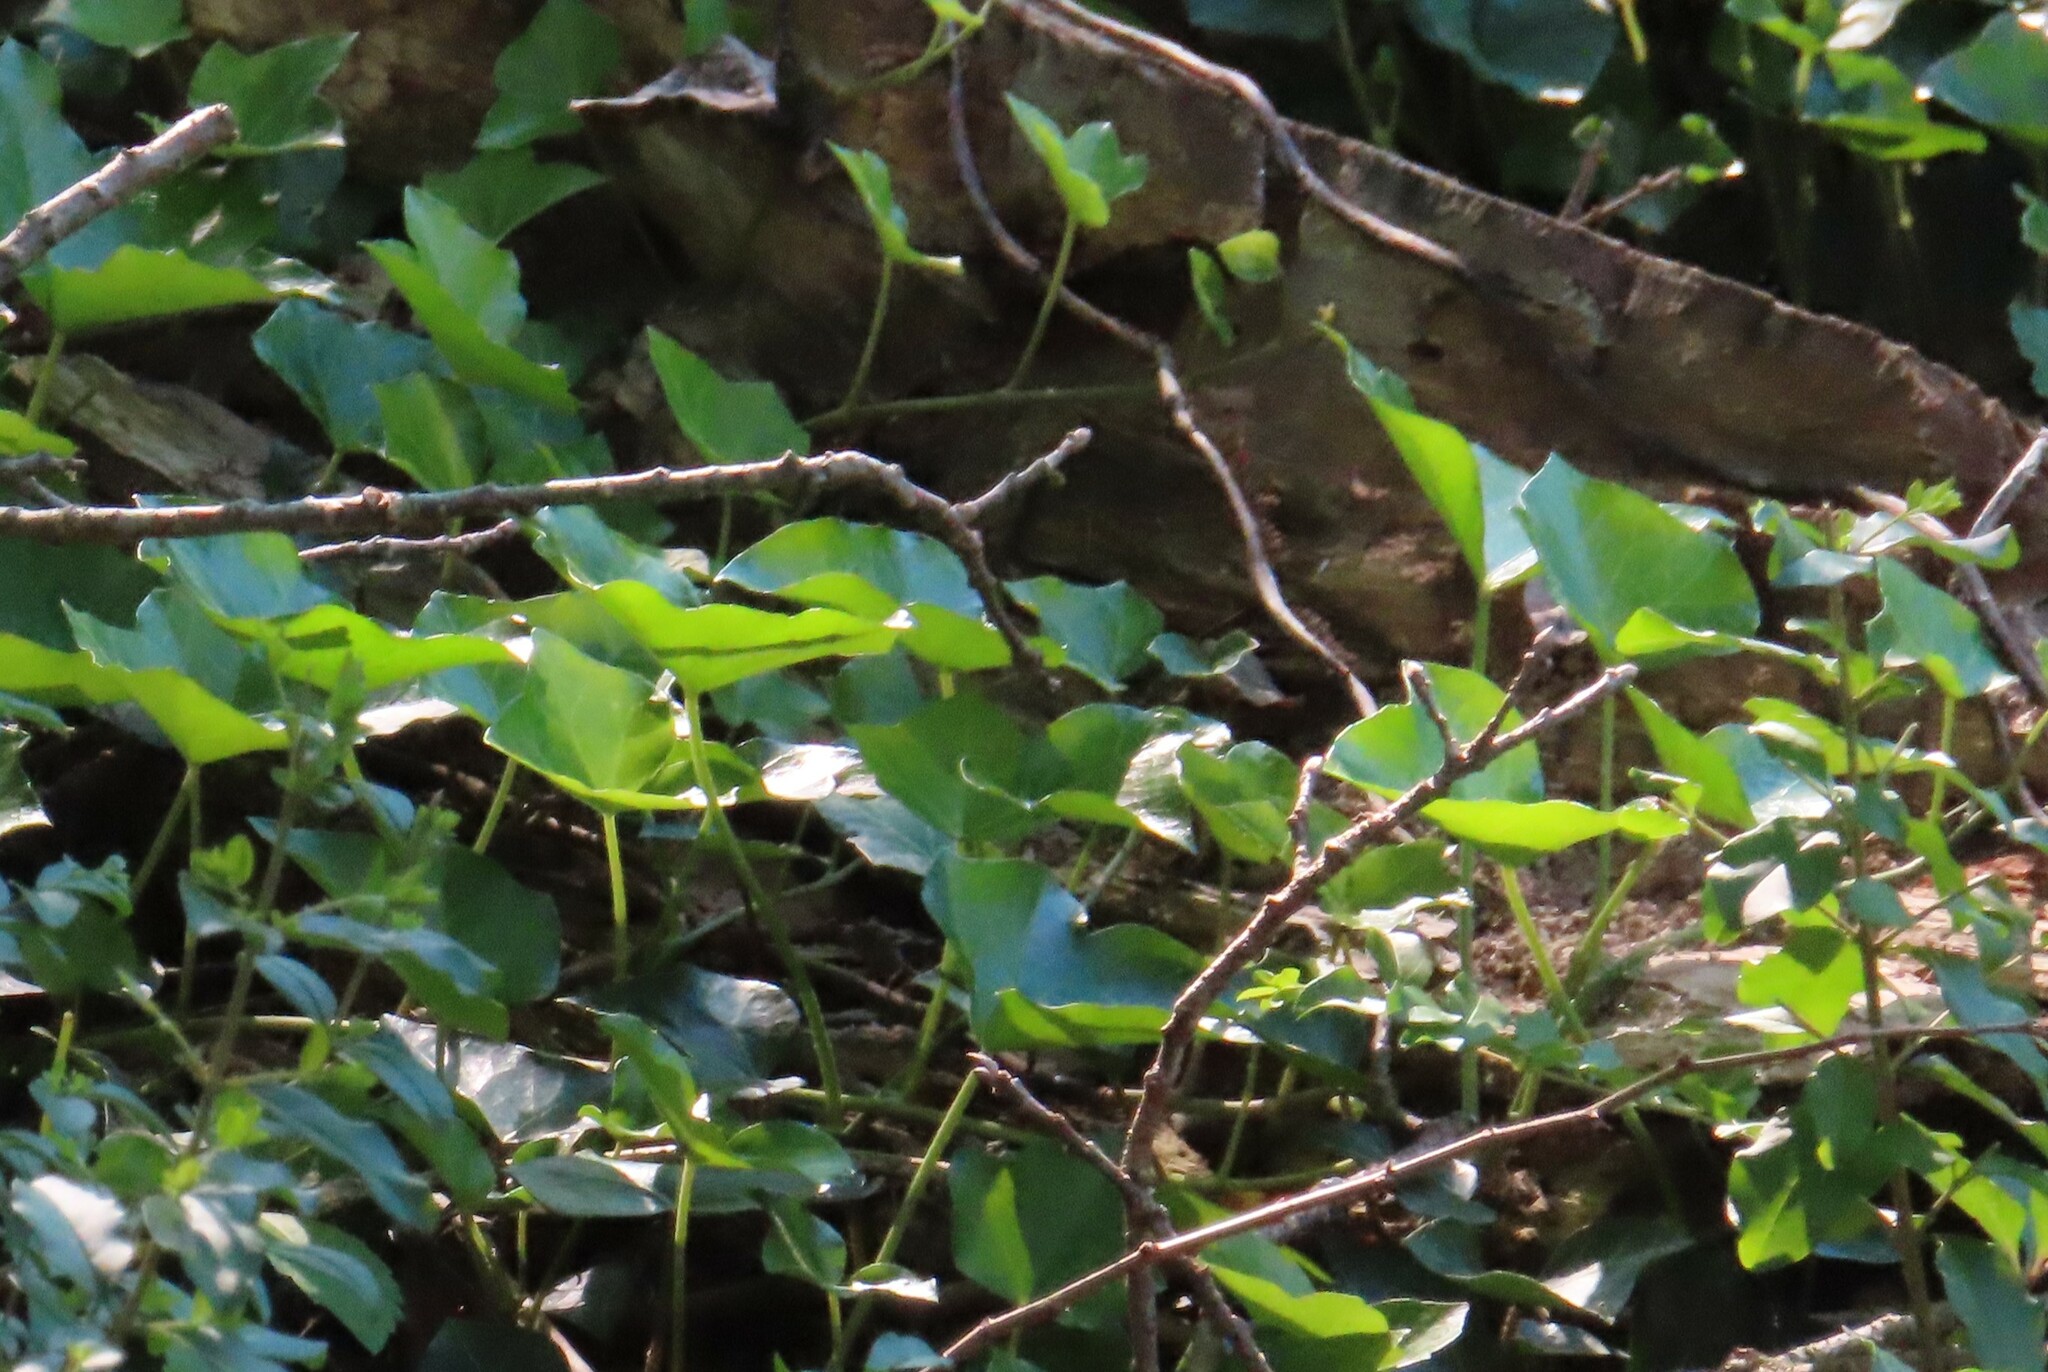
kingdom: Plantae
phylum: Tracheophyta
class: Magnoliopsida
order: Apiales
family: Araliaceae
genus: Hedera
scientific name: Hedera helix
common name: Ivy
